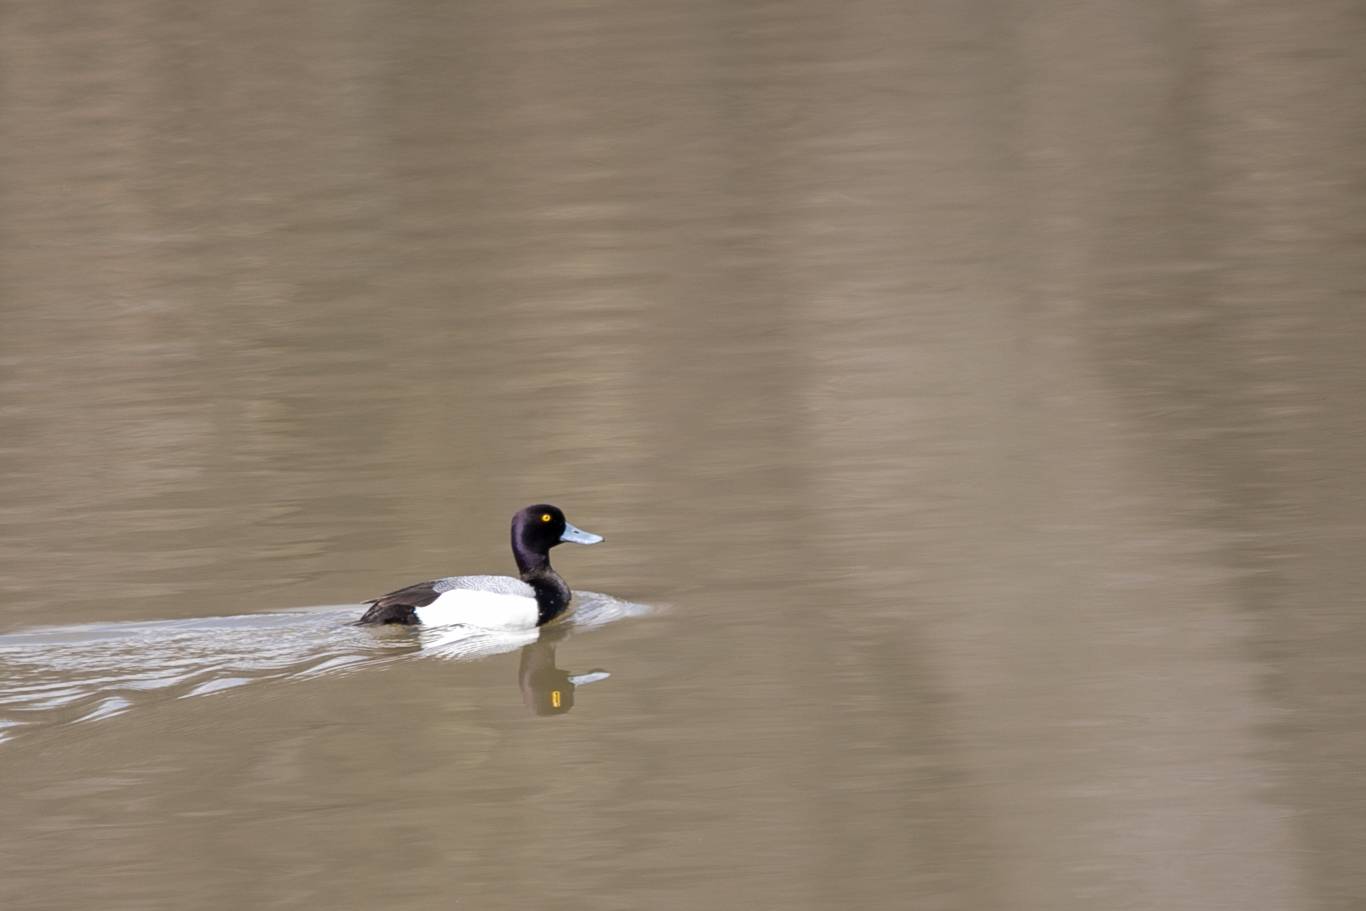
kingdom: Animalia
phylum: Chordata
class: Aves
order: Anseriformes
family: Anatidae
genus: Aythya
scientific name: Aythya affinis
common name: Lesser scaup
